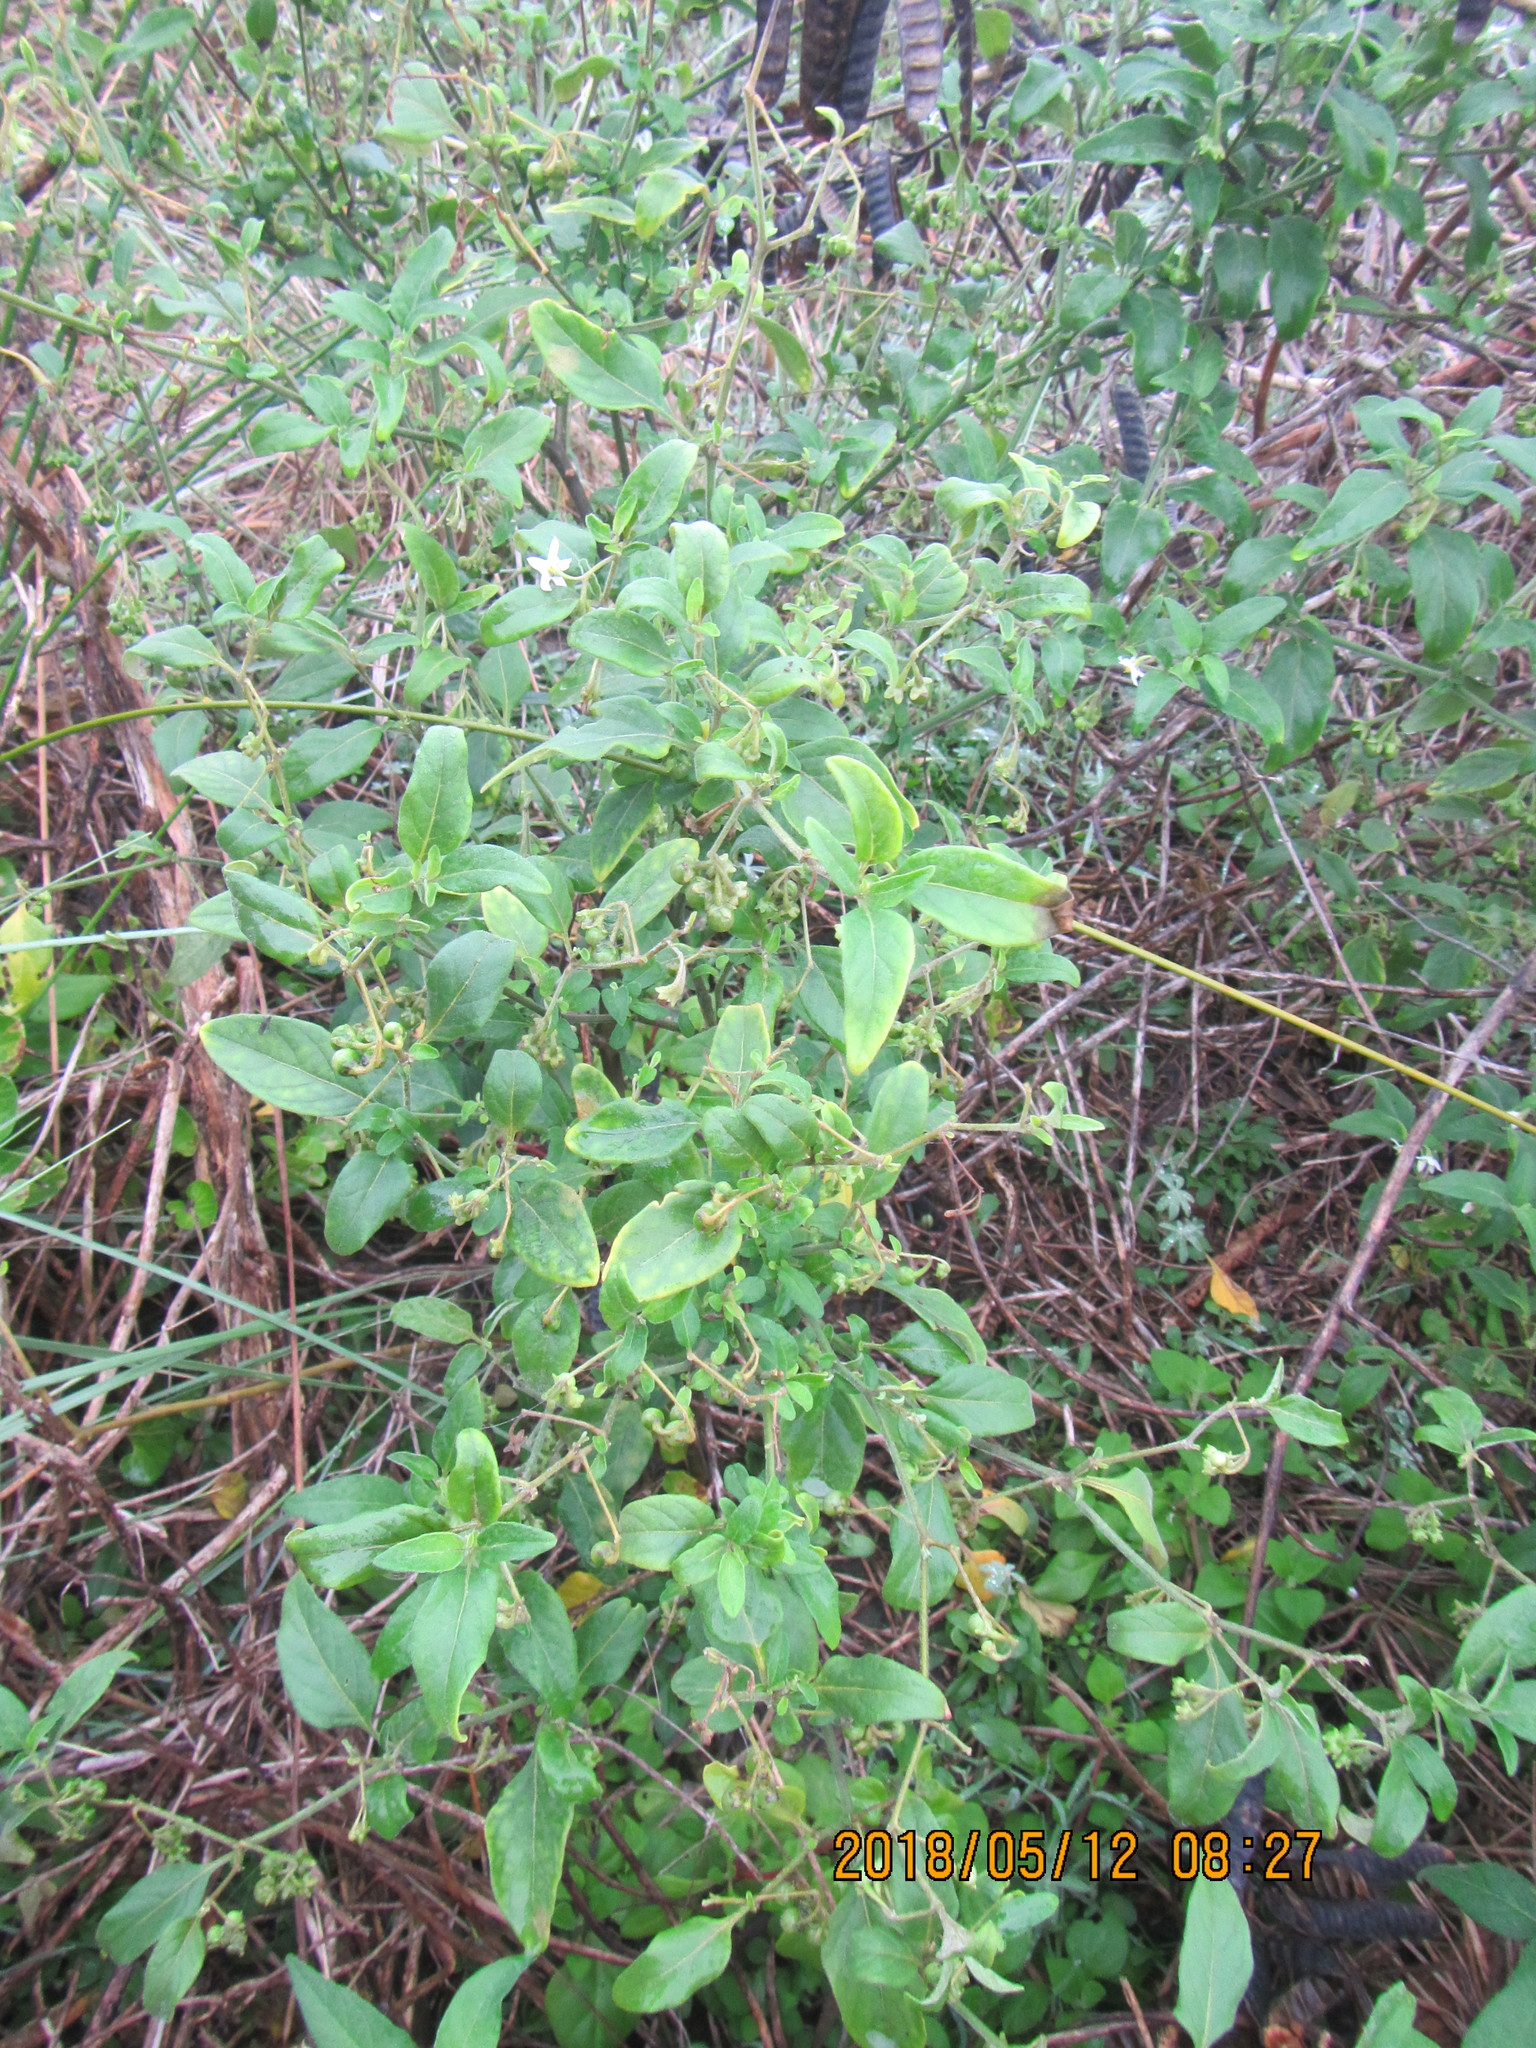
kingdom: Plantae
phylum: Tracheophyta
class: Magnoliopsida
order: Solanales
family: Solanaceae
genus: Solanum
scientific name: Solanum chenopodioides
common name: Tall nightshade
